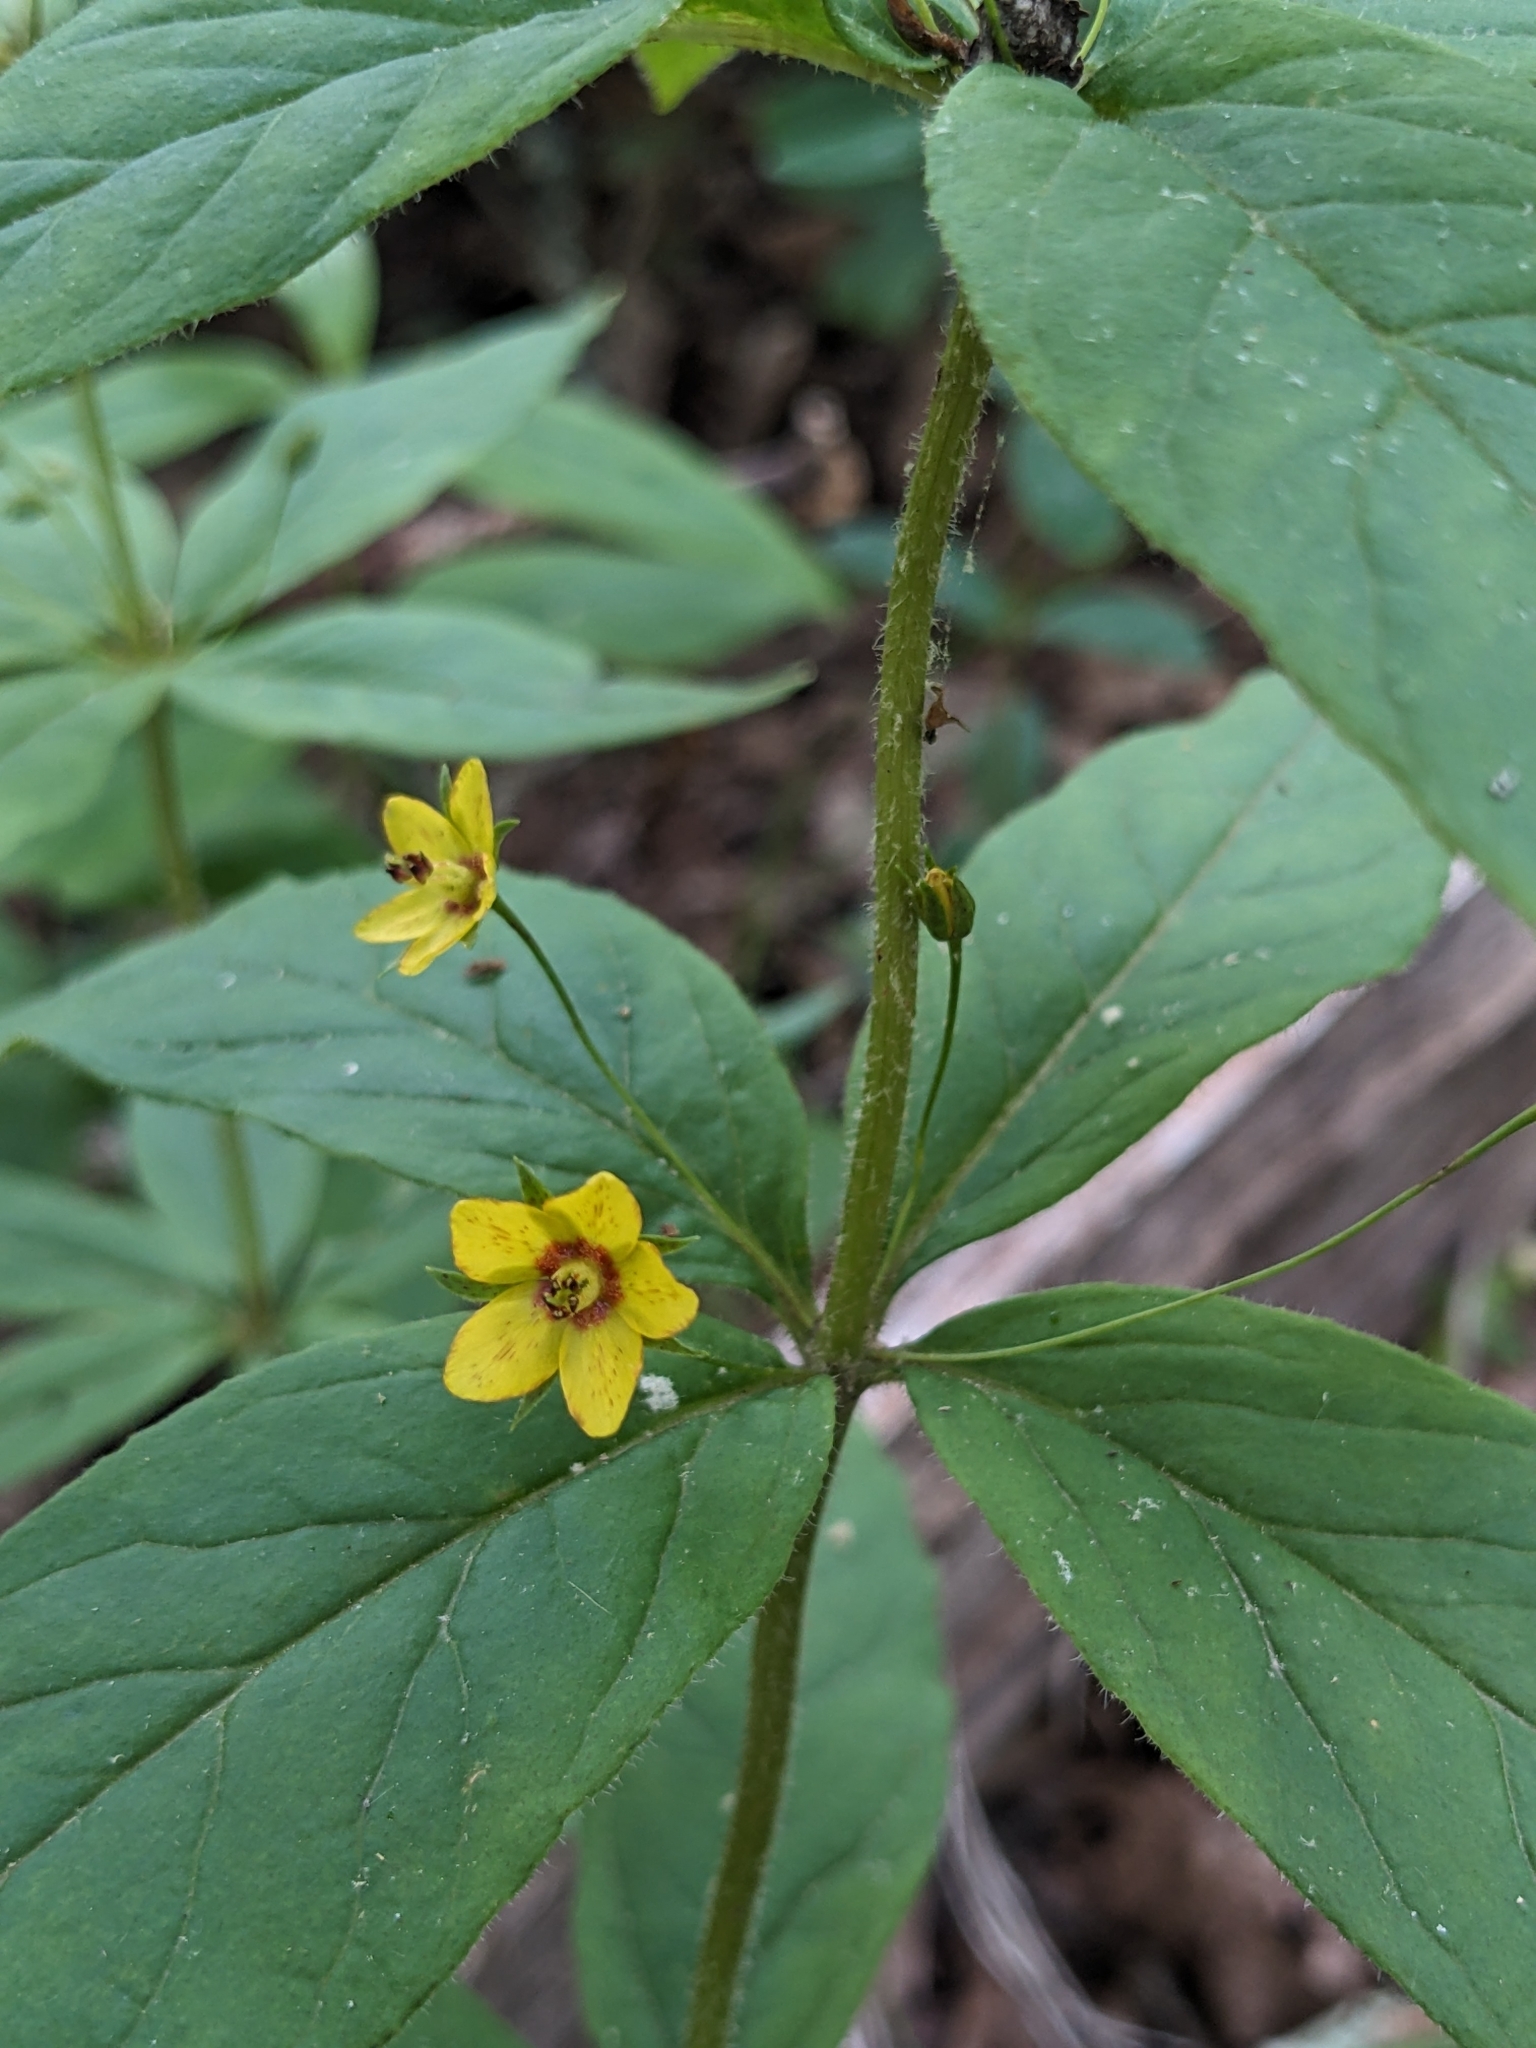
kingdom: Plantae
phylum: Tracheophyta
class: Magnoliopsida
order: Ericales
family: Primulaceae
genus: Lysimachia
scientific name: Lysimachia quadrifolia
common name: Whorled loosestrife
